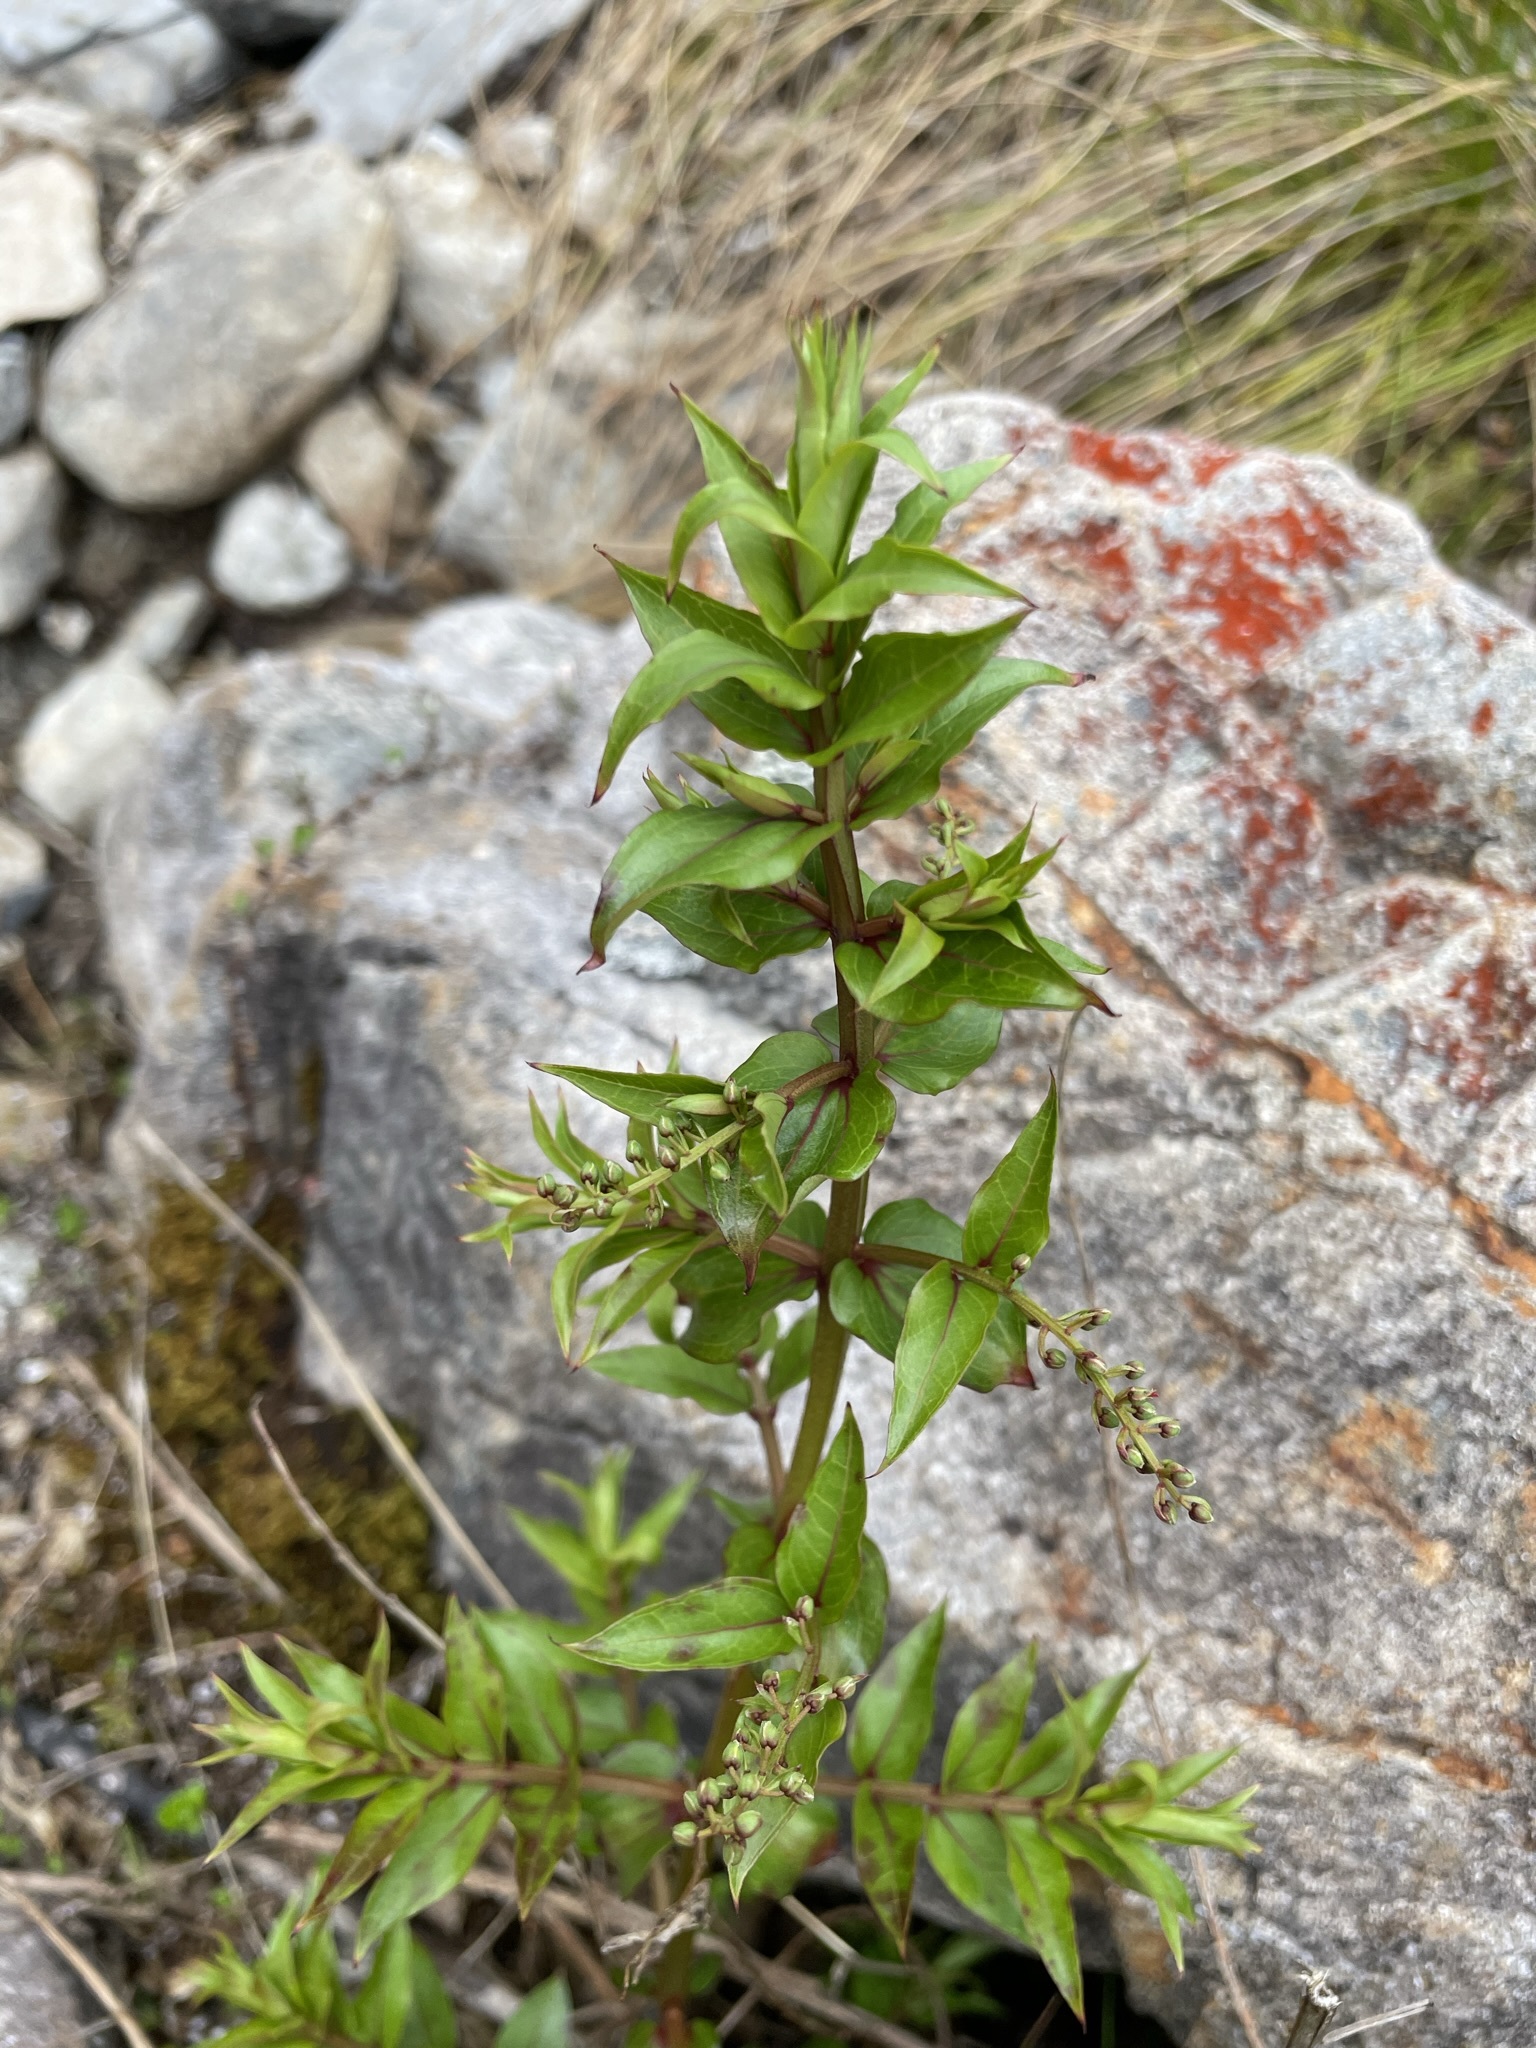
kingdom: Plantae
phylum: Tracheophyta
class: Magnoliopsida
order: Cucurbitales
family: Coriariaceae
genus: Coriaria
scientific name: Coriaria plumosa
